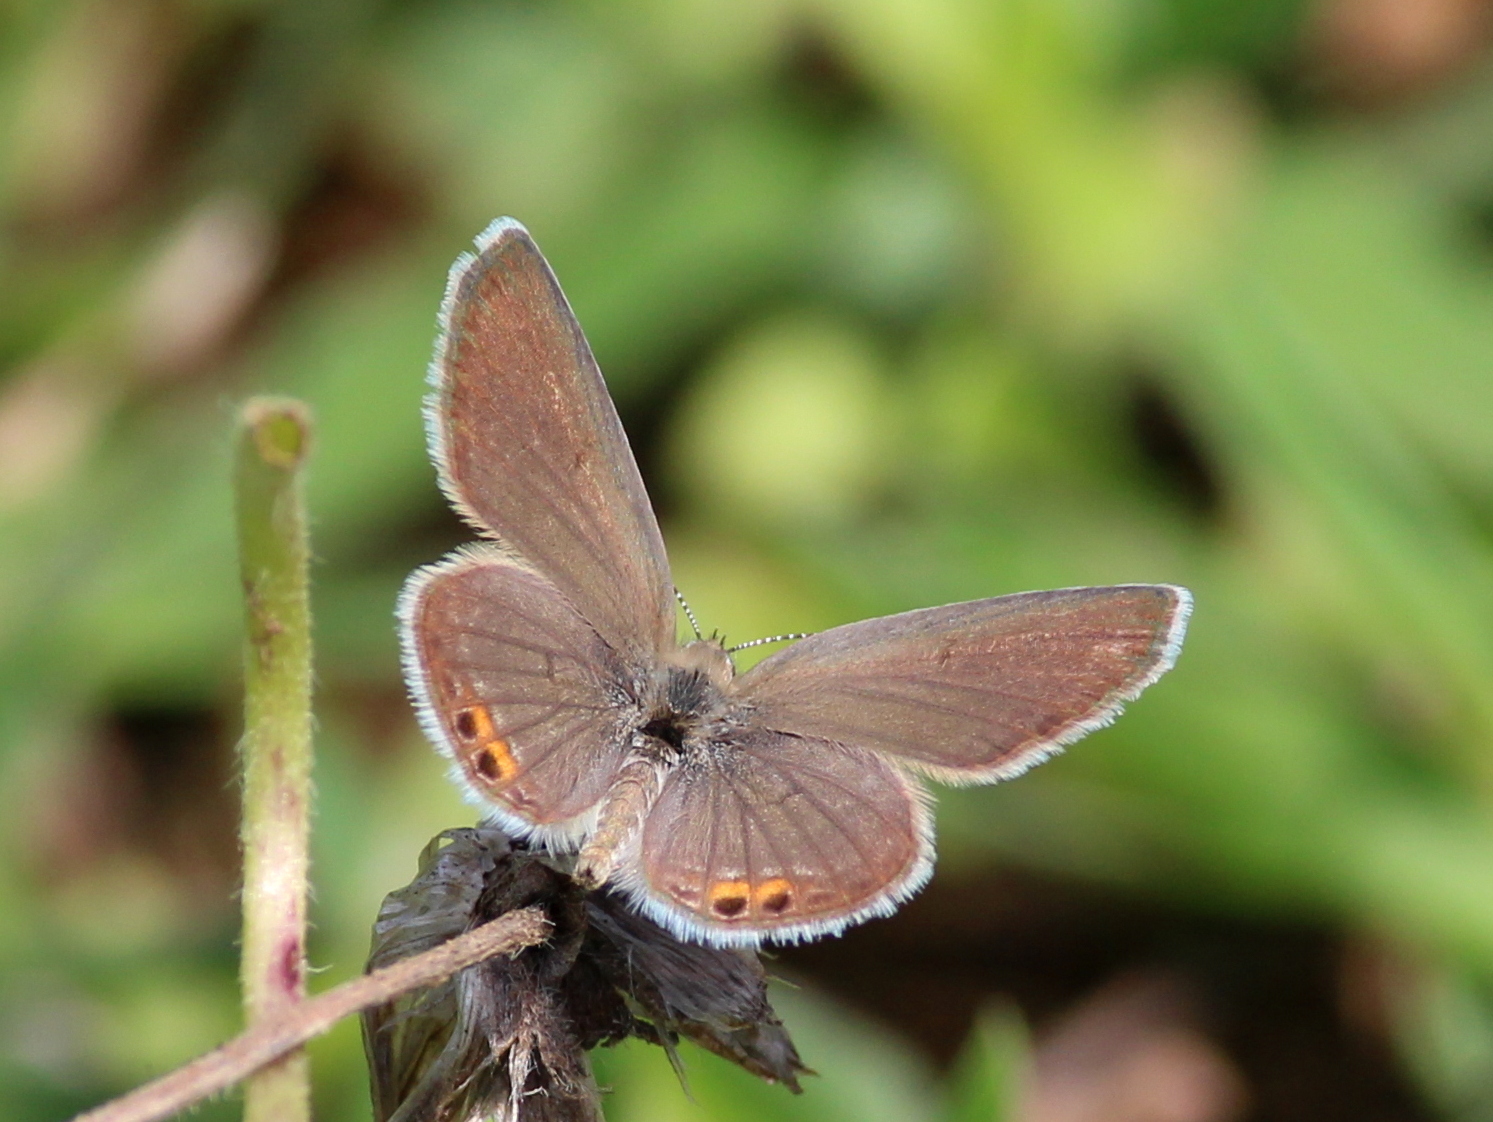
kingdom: Animalia
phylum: Arthropoda
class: Insecta
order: Lepidoptera
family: Lycaenidae
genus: Freyeria
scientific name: Freyeria trochylus
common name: Grass jewel
